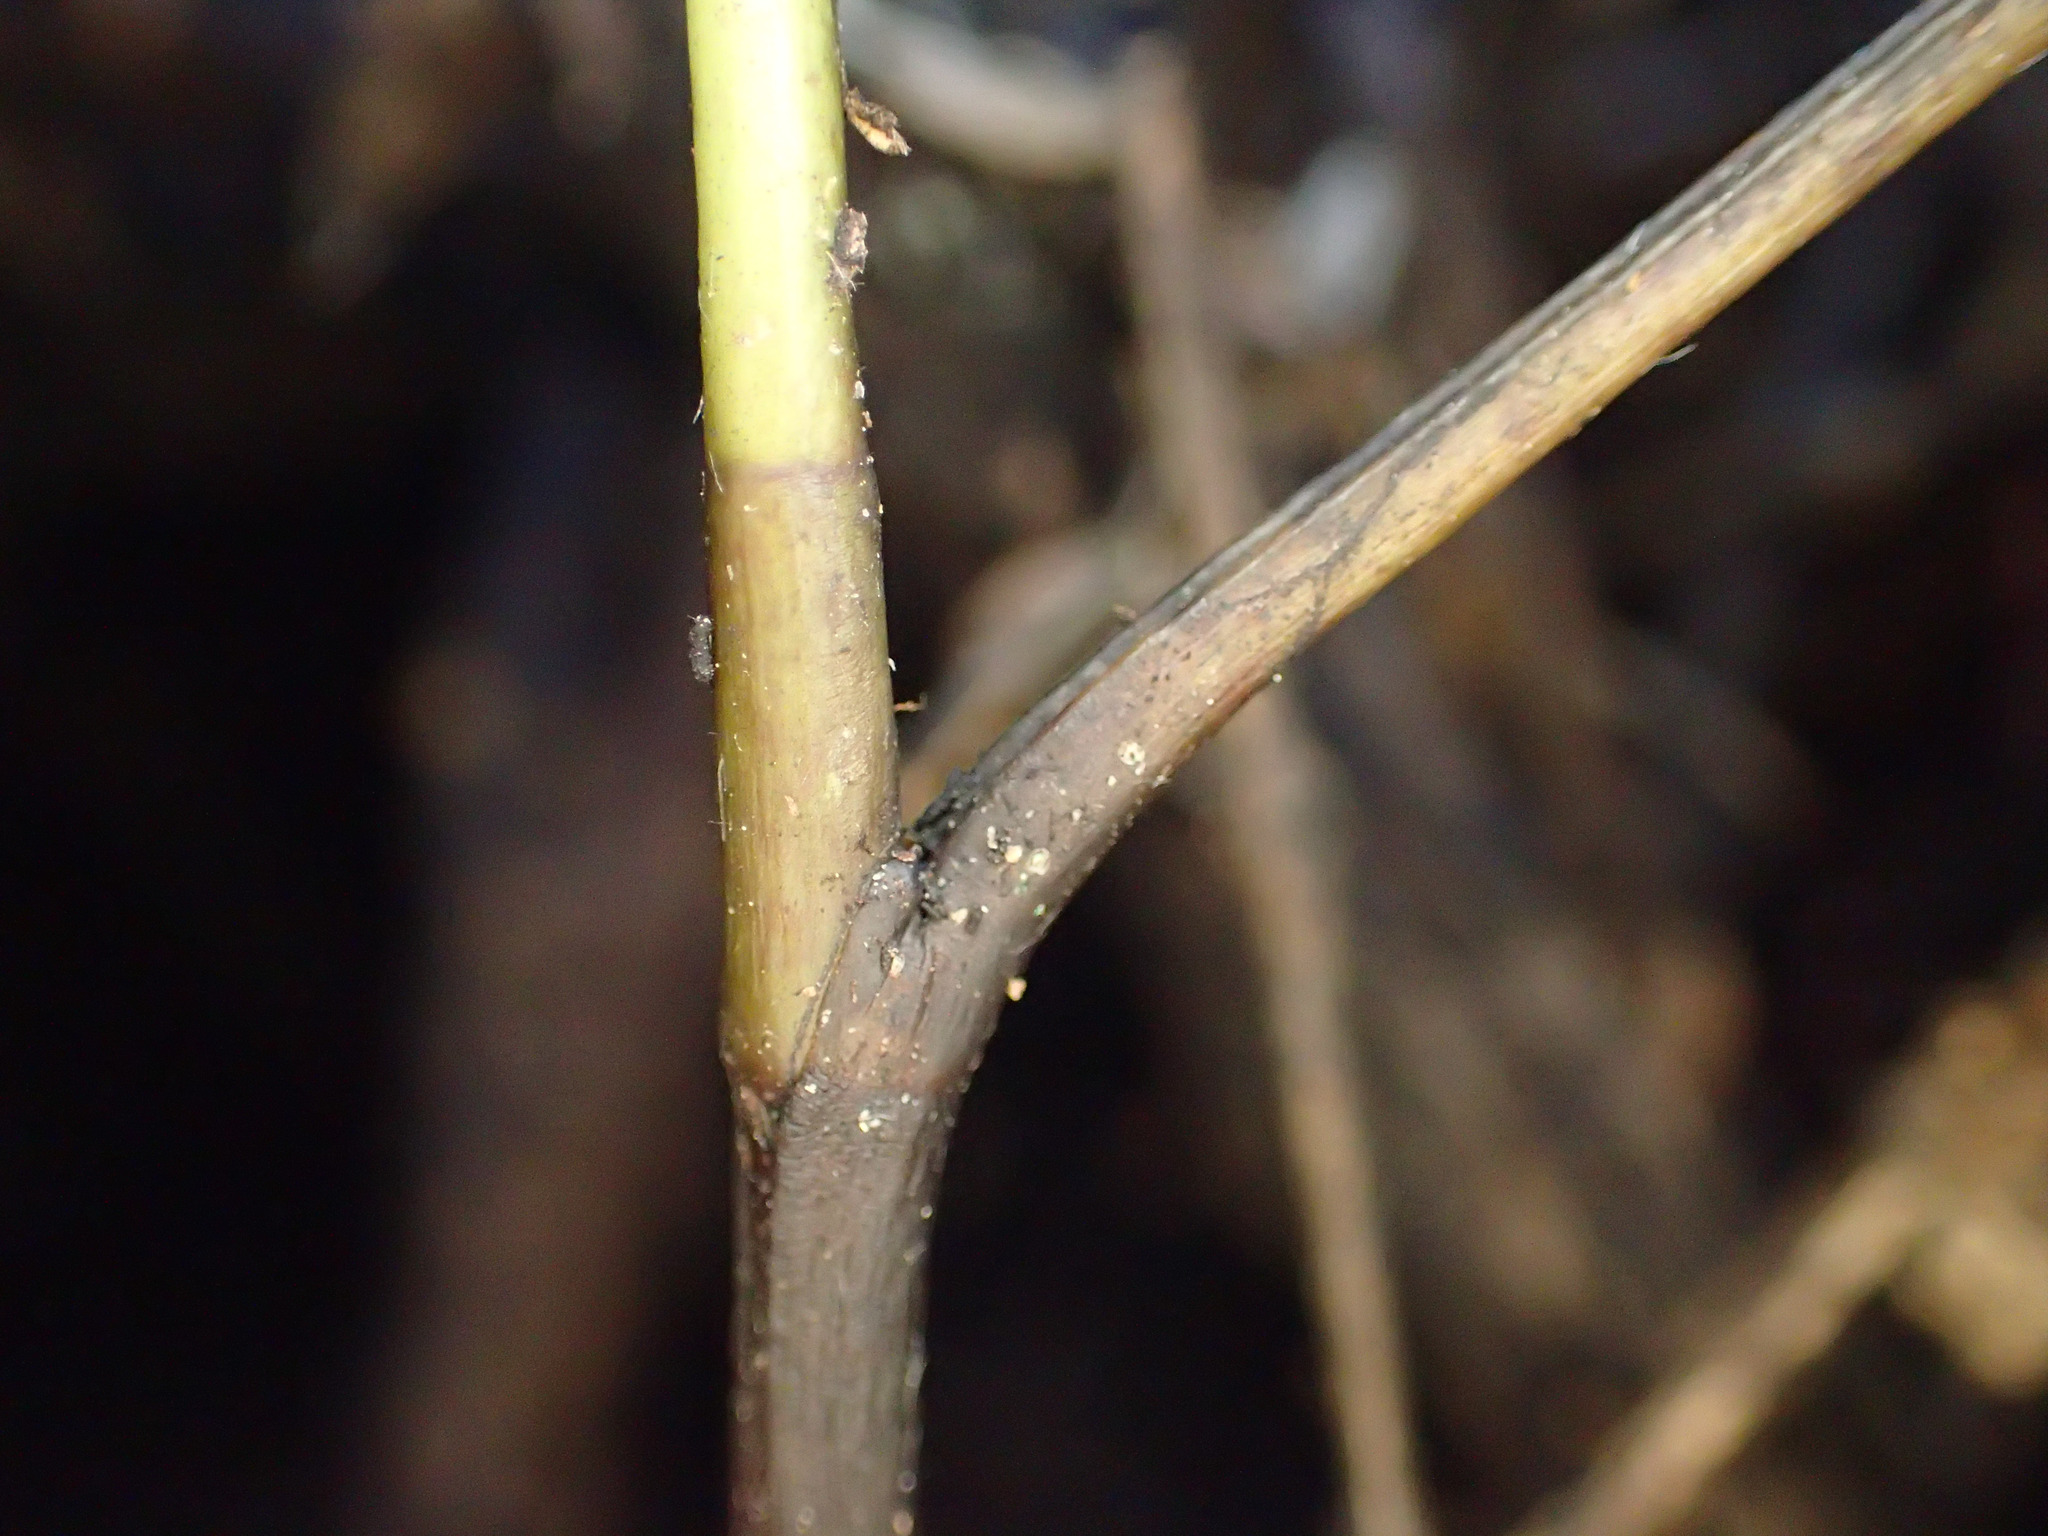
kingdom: Plantae
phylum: Tracheophyta
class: Magnoliopsida
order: Apiales
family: Araliaceae
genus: Neopanax
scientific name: Neopanax colensoi
